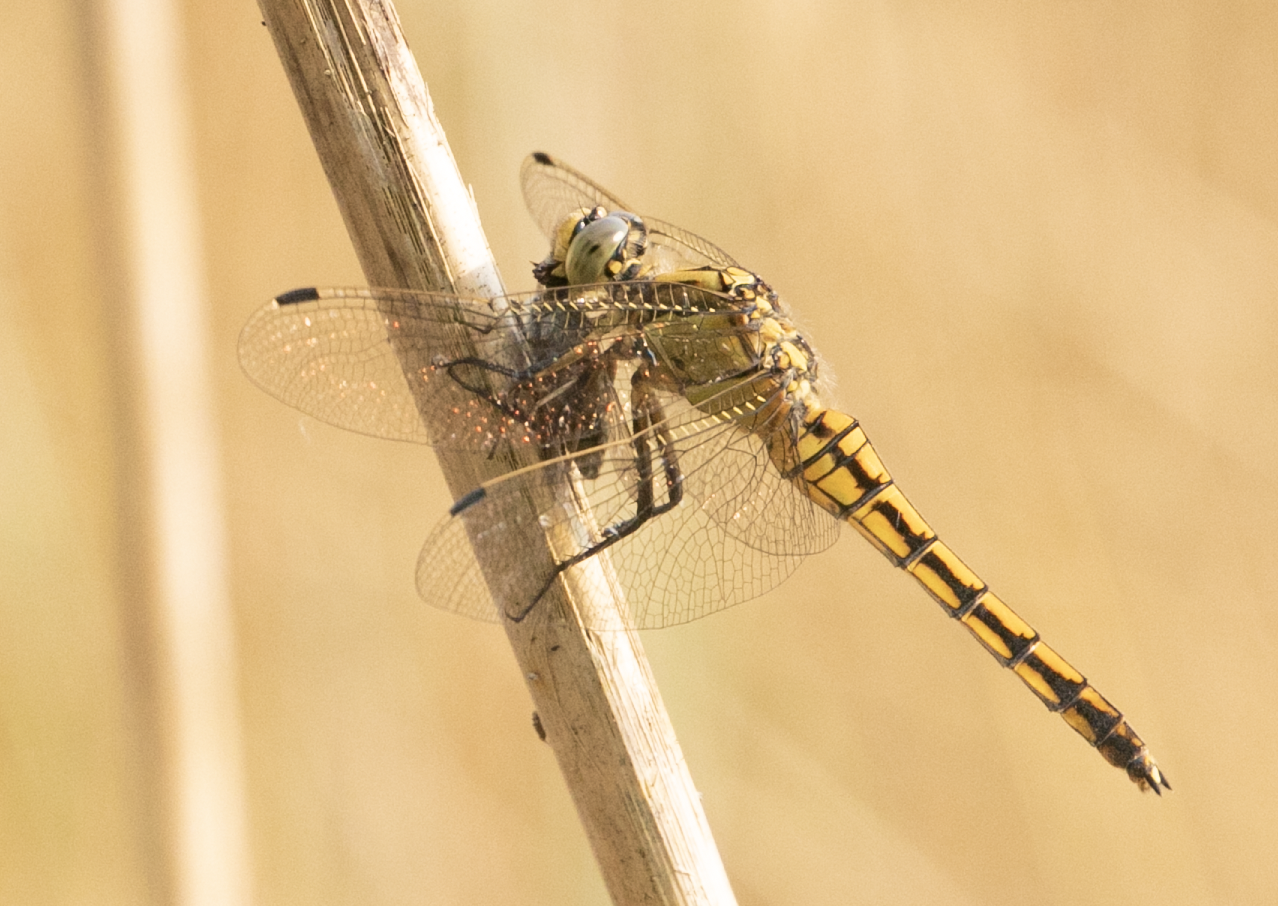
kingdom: Animalia
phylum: Arthropoda
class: Insecta
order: Odonata
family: Libellulidae
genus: Orthetrum
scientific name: Orthetrum cancellatum
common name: Black-tailed skimmer
